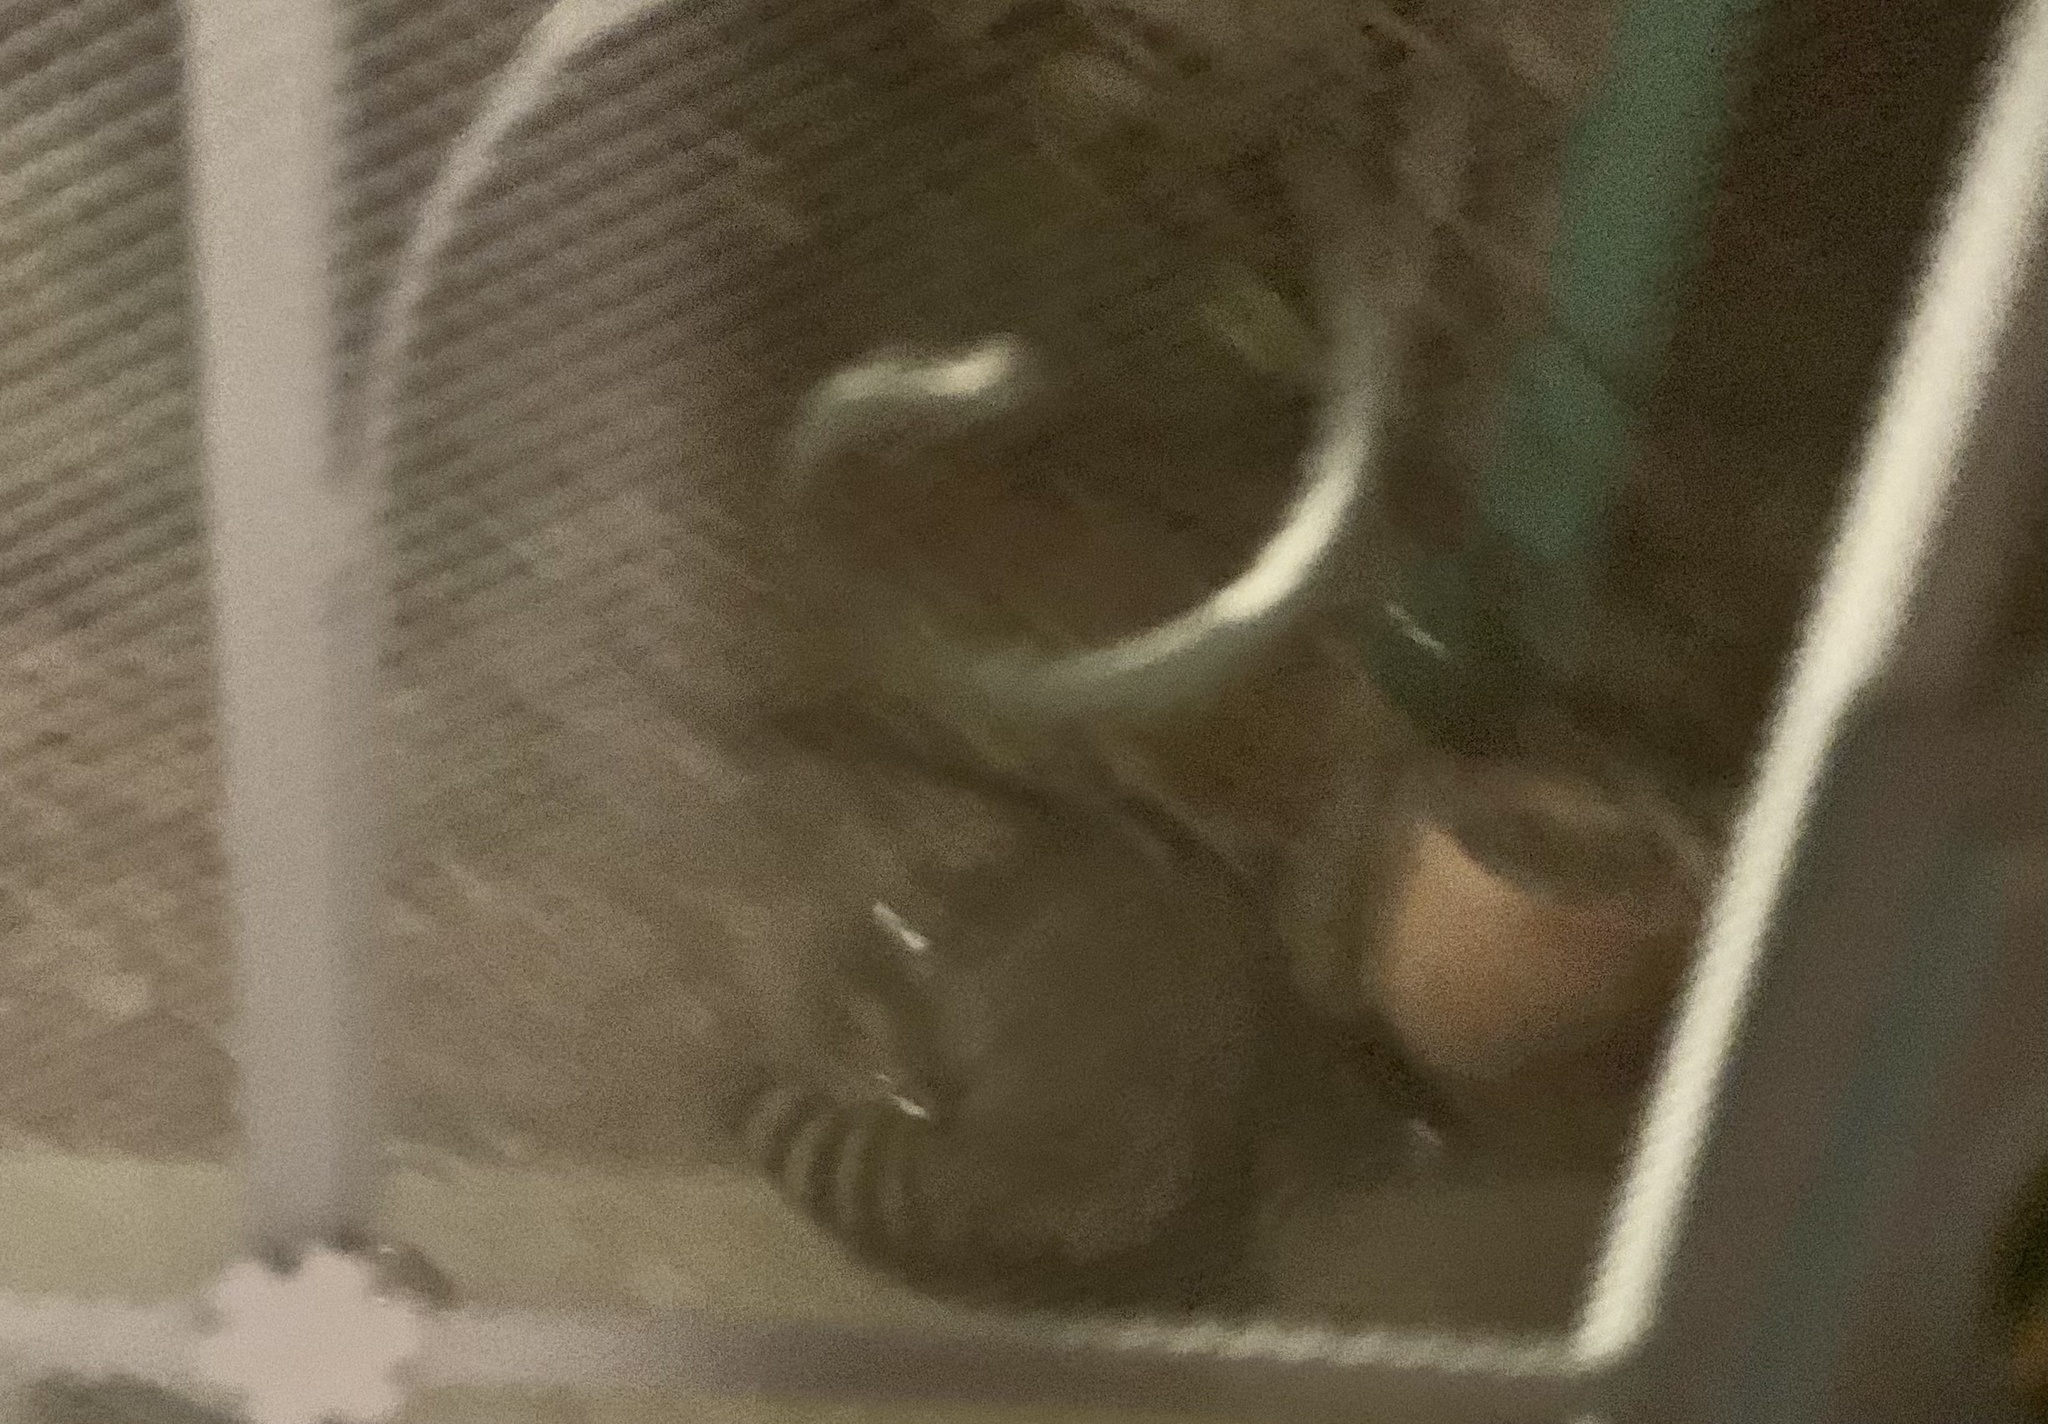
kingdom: Animalia
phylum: Chordata
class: Mammalia
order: Carnivora
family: Procyonidae
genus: Procyon
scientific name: Procyon lotor
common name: Raccoon
